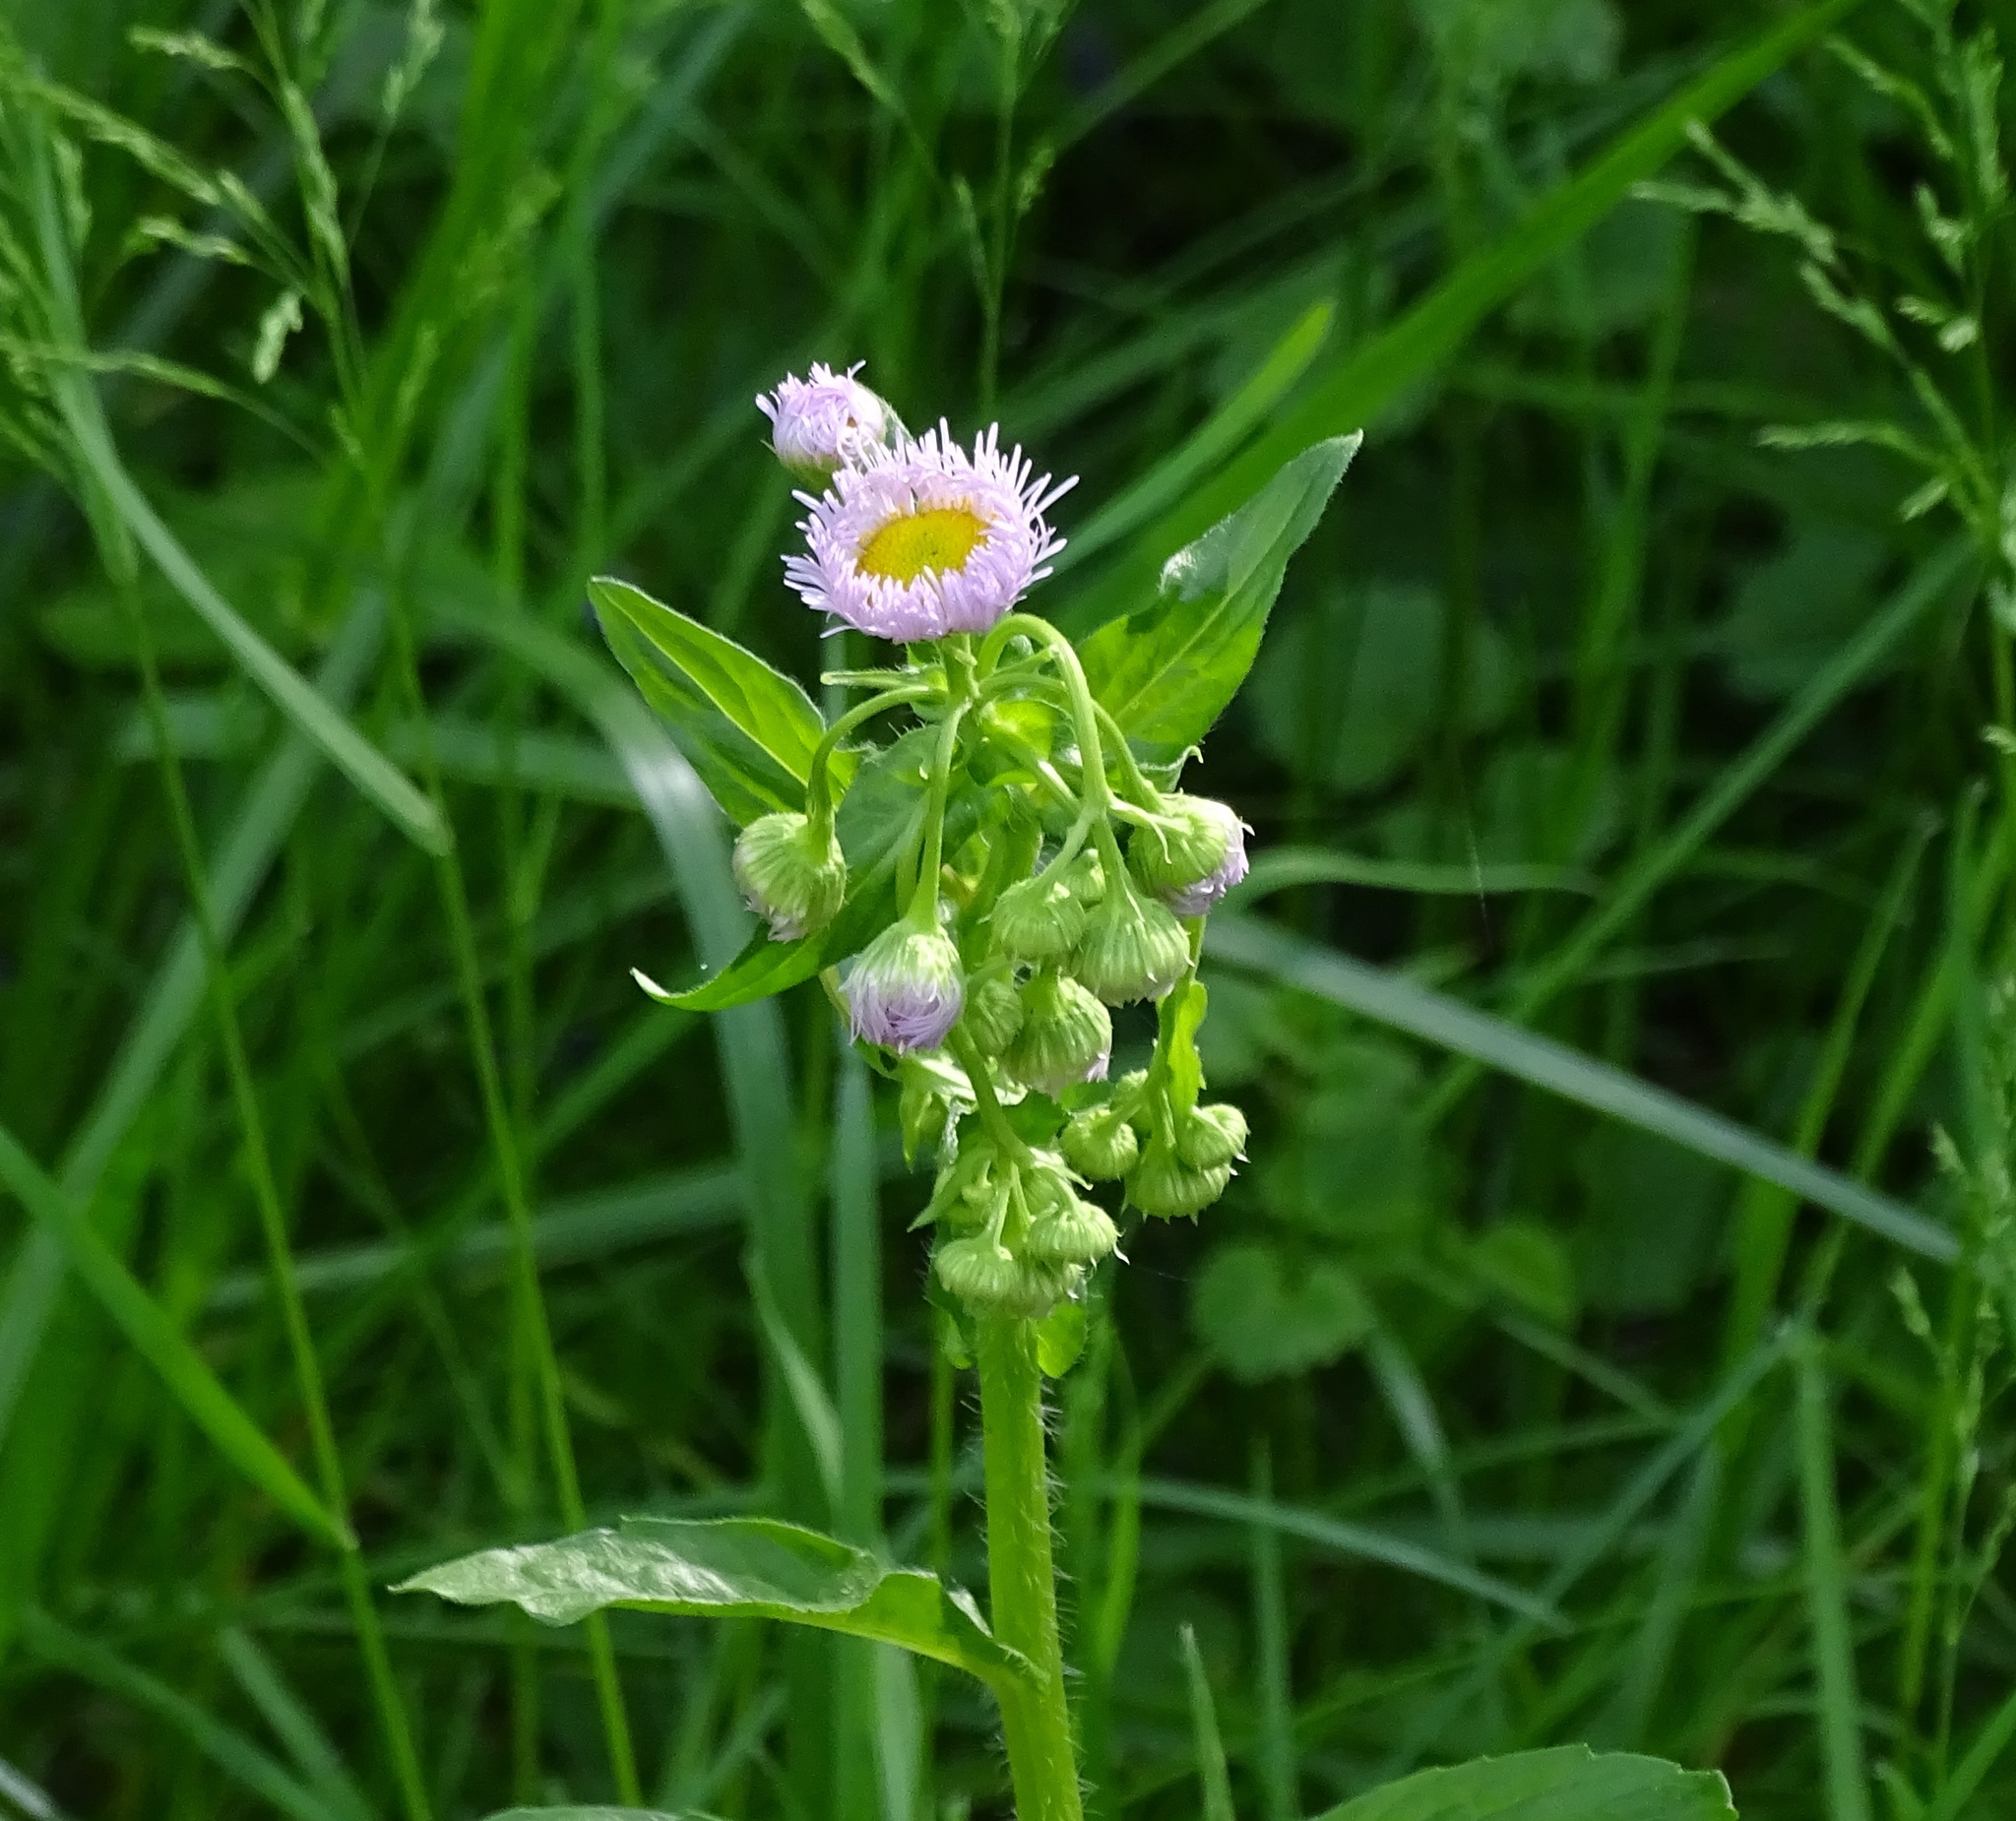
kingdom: Plantae
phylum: Tracheophyta
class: Magnoliopsida
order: Asterales
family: Asteraceae
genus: Erigeron
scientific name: Erigeron philadelphicus
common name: Robin's-plantain
